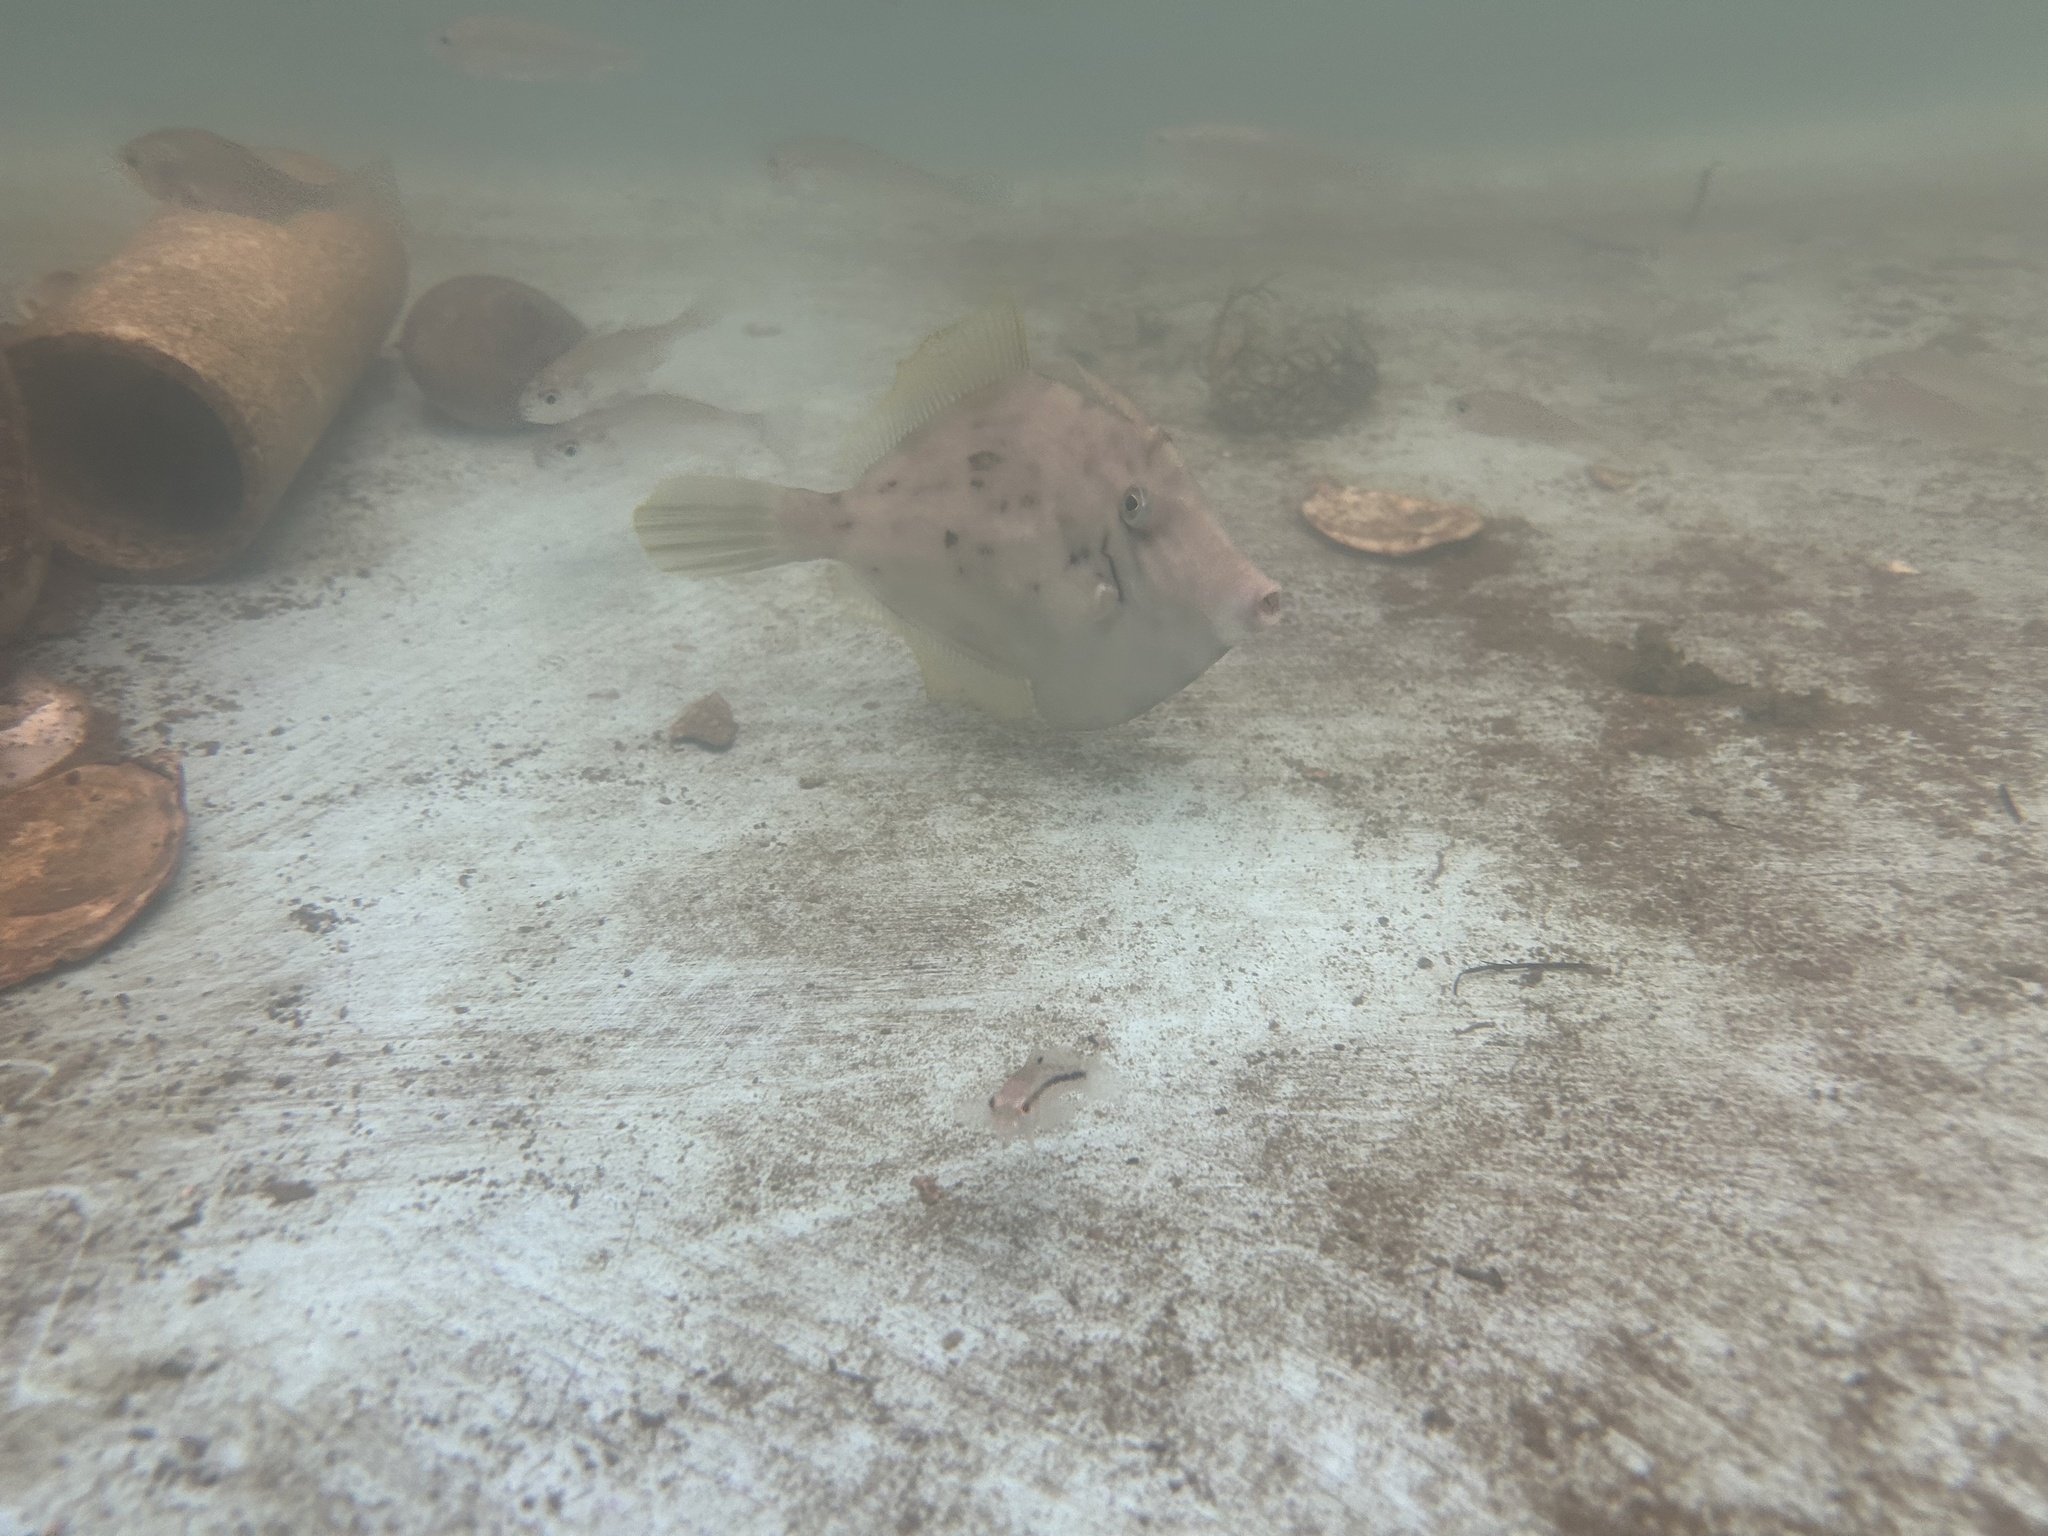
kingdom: Animalia
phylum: Chordata
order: Tetraodontiformes
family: Monacanthidae
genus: Stephanolepis
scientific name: Stephanolepis hispidus
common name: Planehead filefish
